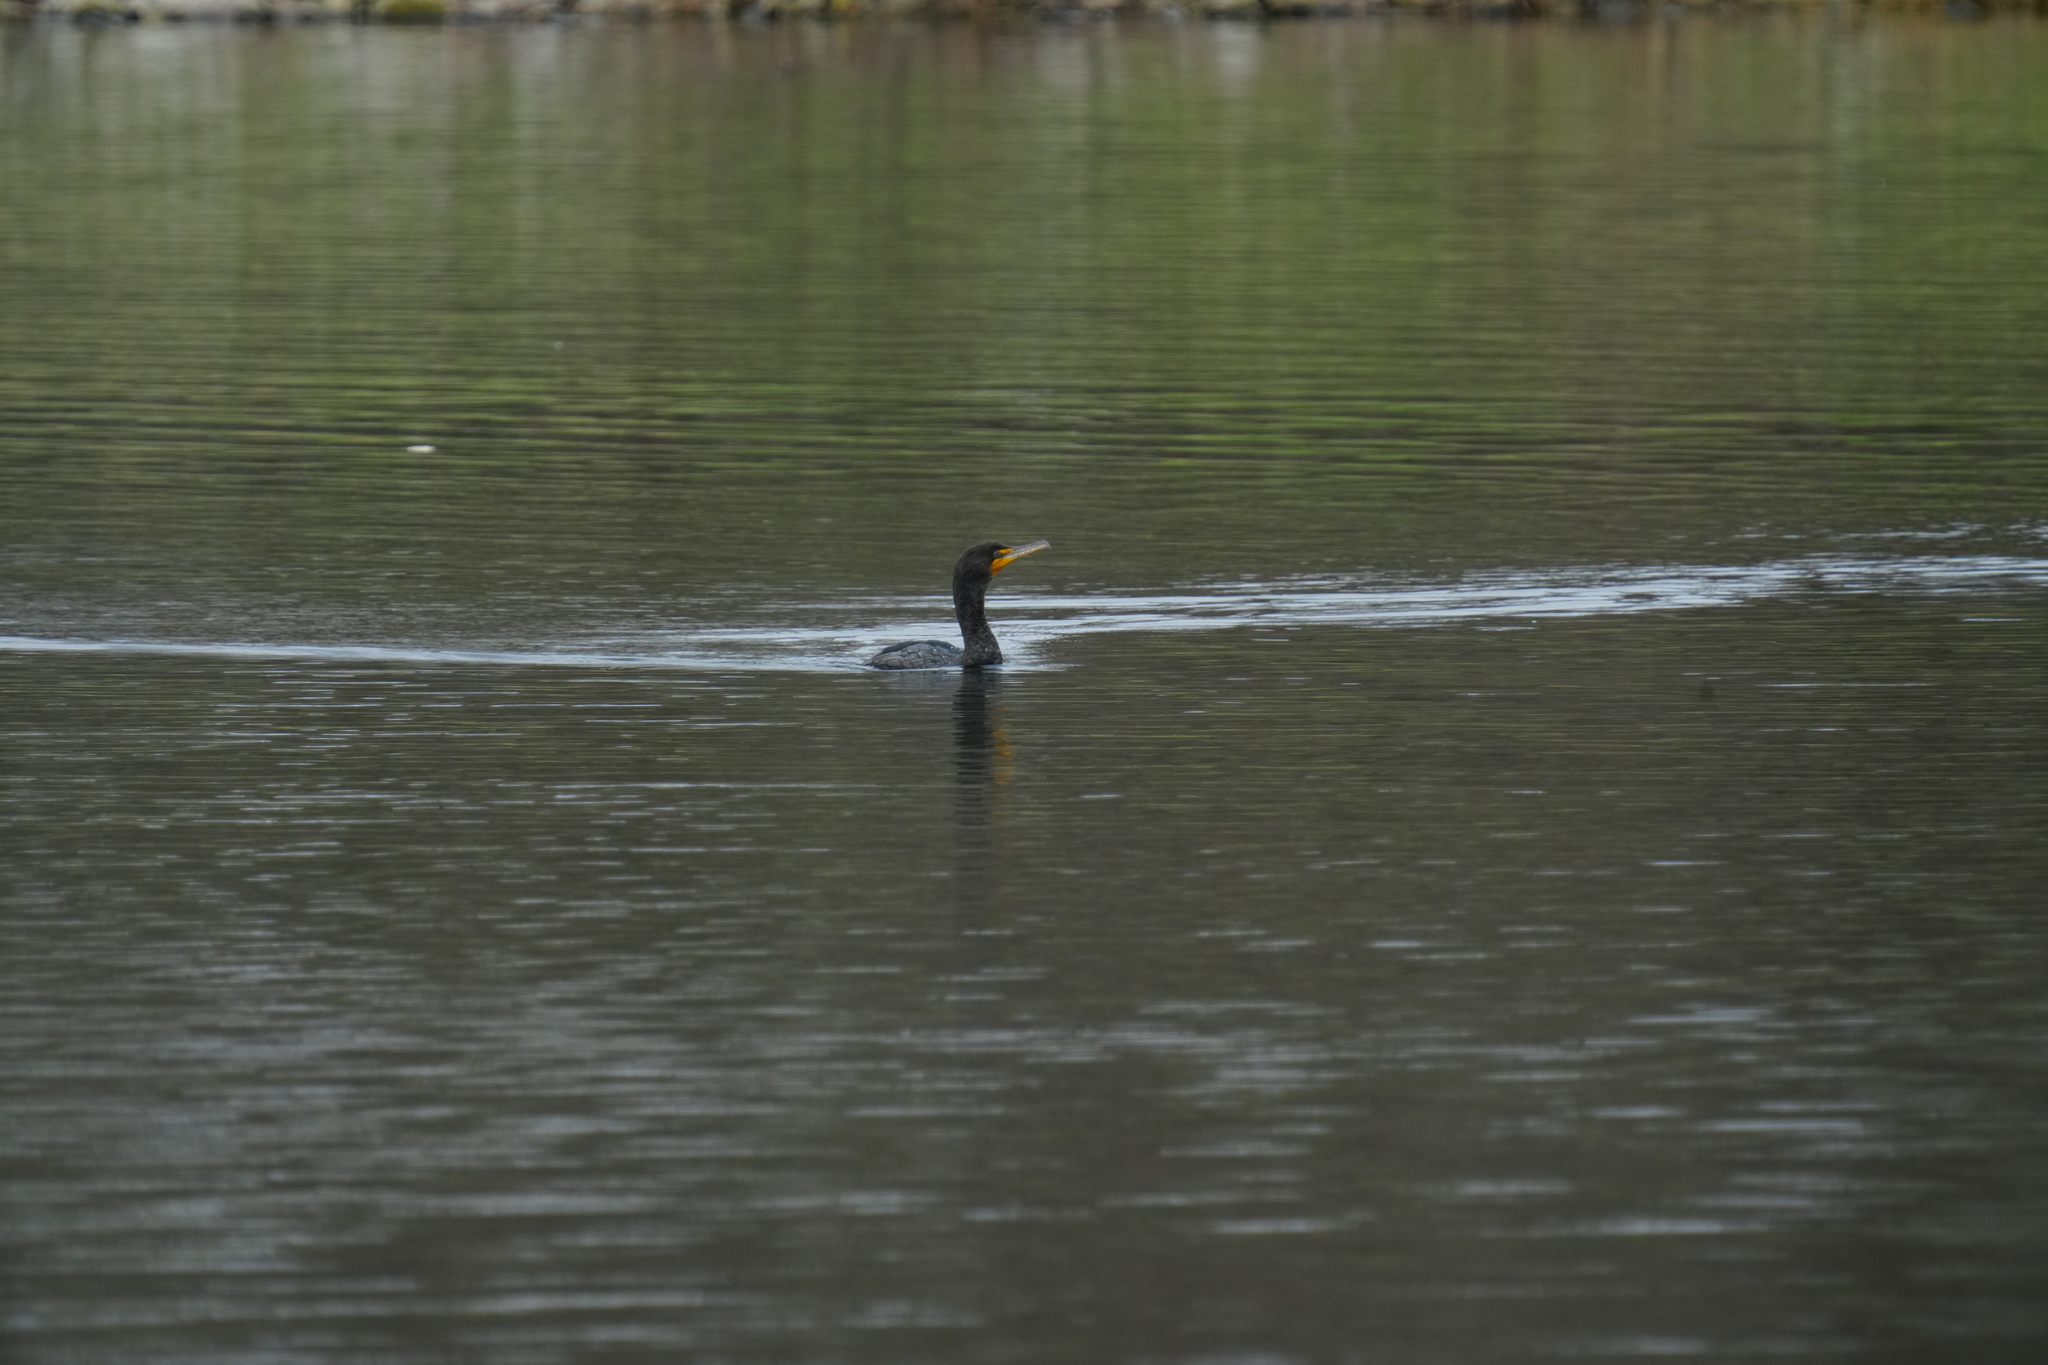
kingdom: Animalia
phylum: Chordata
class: Aves
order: Suliformes
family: Phalacrocoracidae
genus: Phalacrocorax
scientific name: Phalacrocorax auritus
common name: Double-crested cormorant
